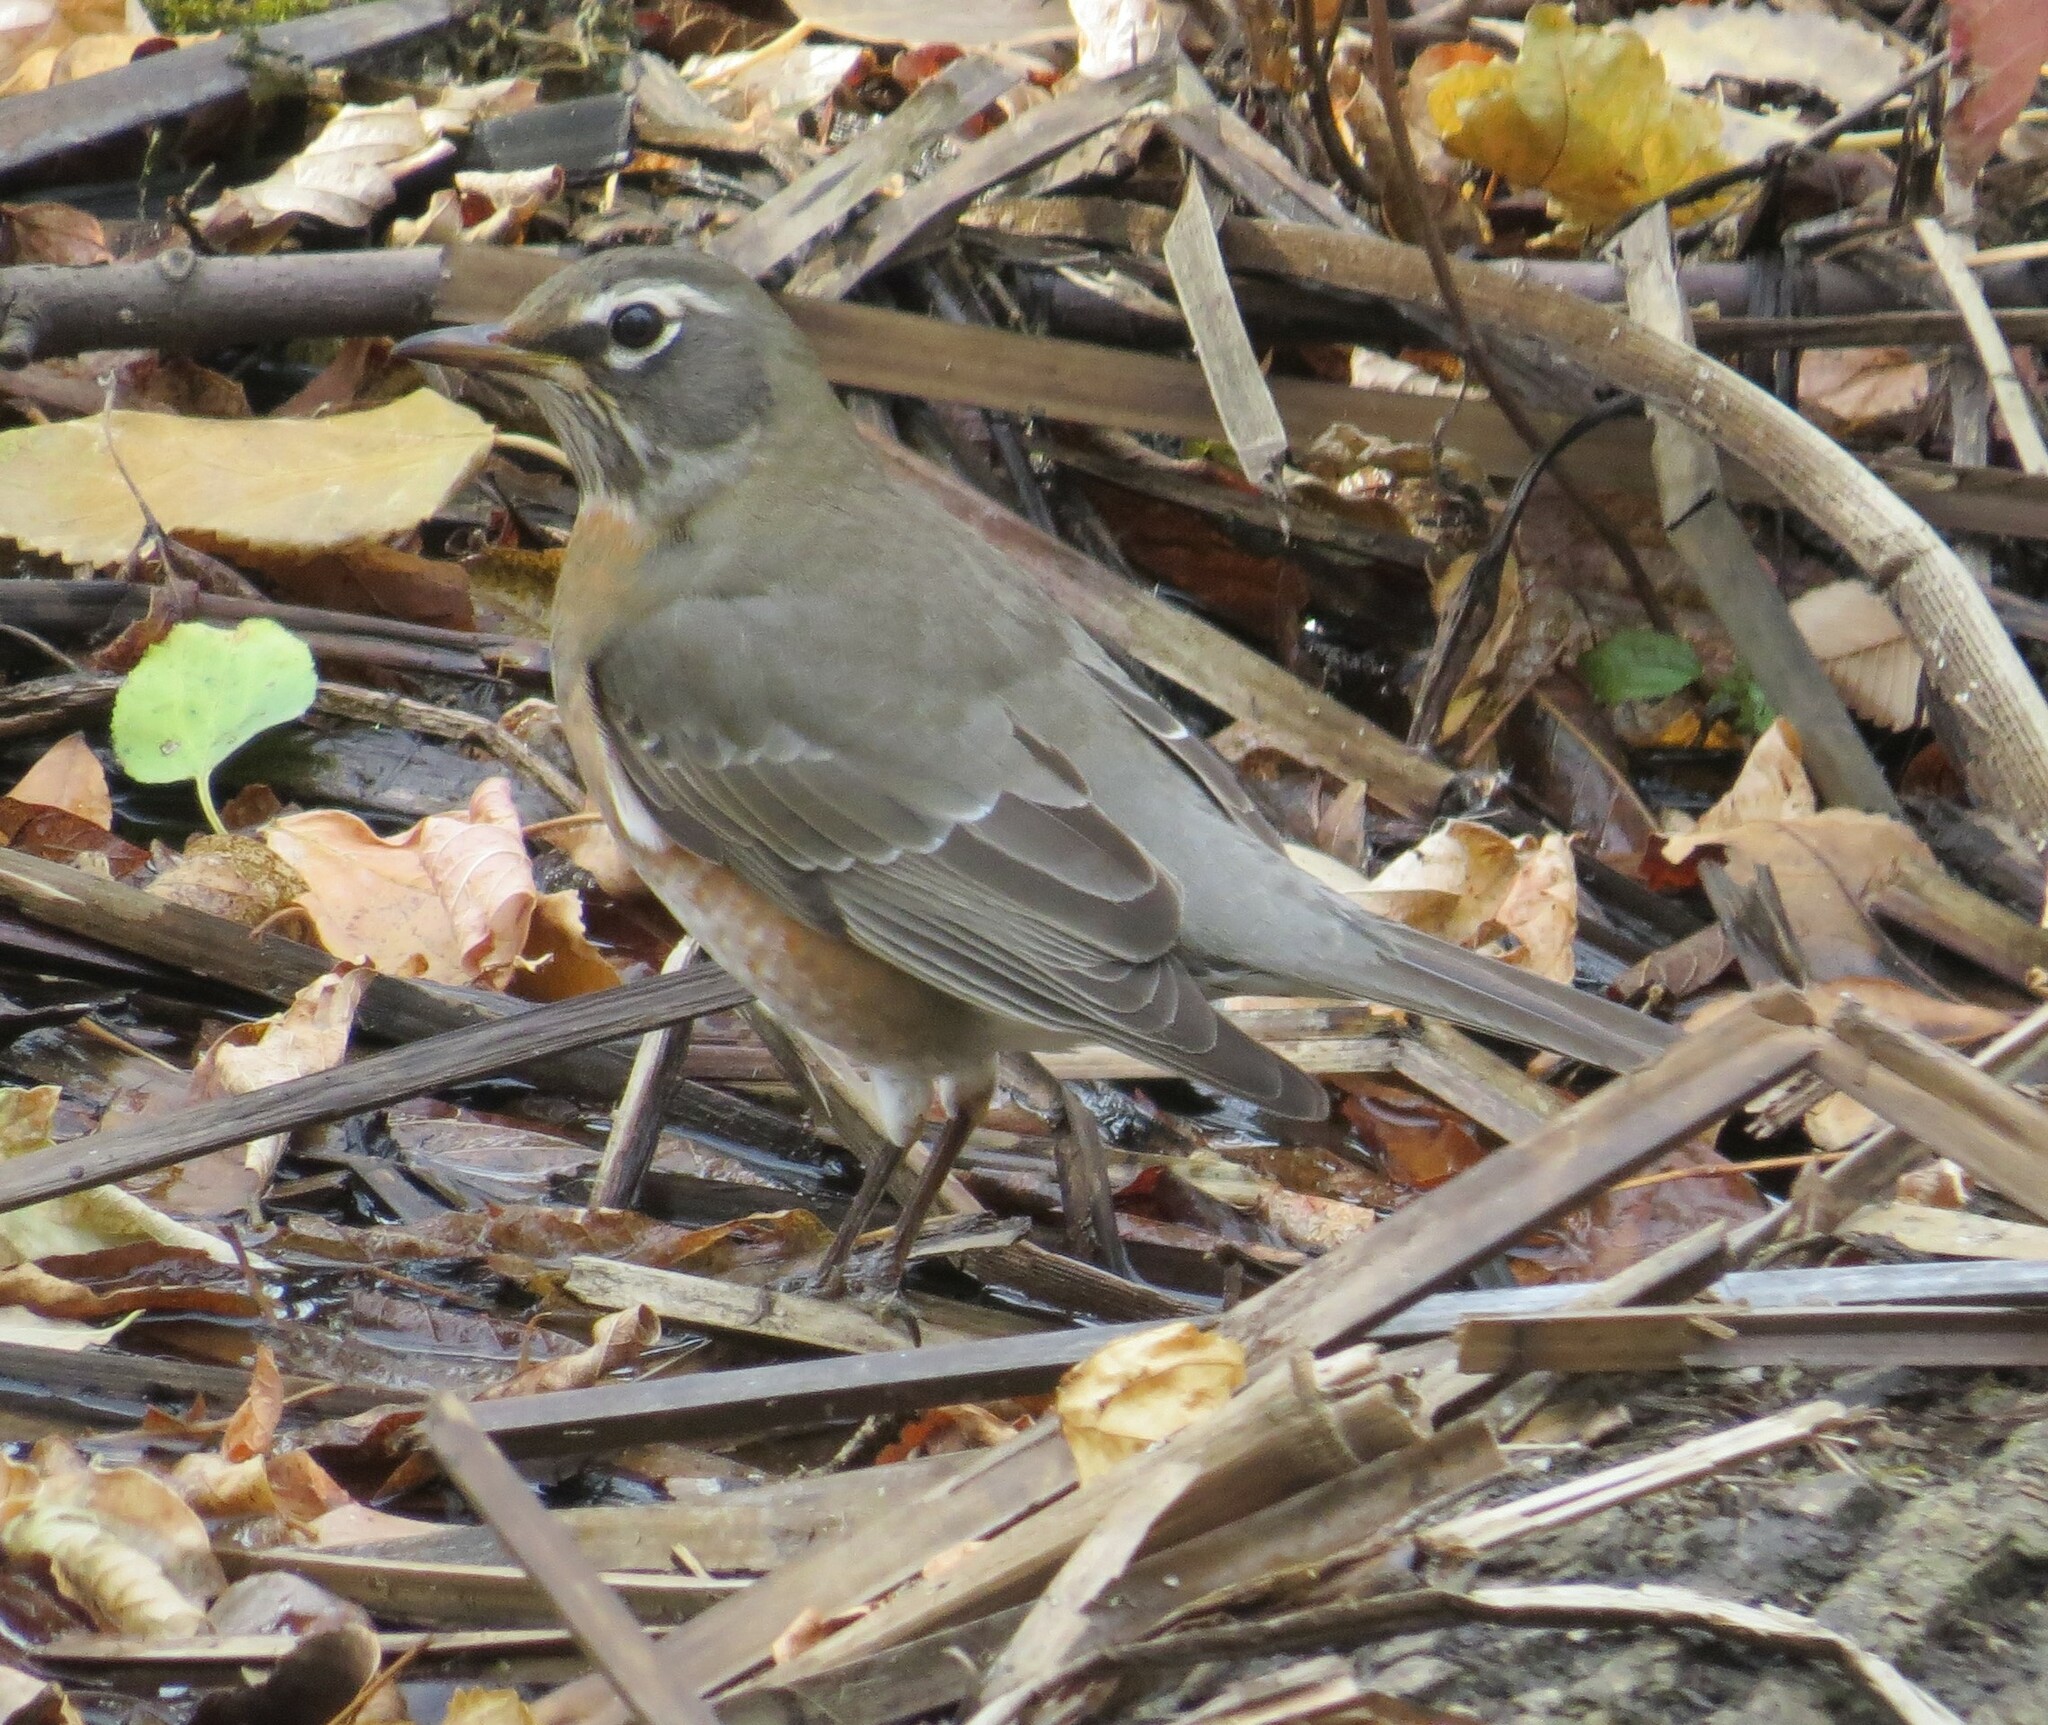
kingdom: Animalia
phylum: Chordata
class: Aves
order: Passeriformes
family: Turdidae
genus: Turdus
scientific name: Turdus migratorius
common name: American robin
